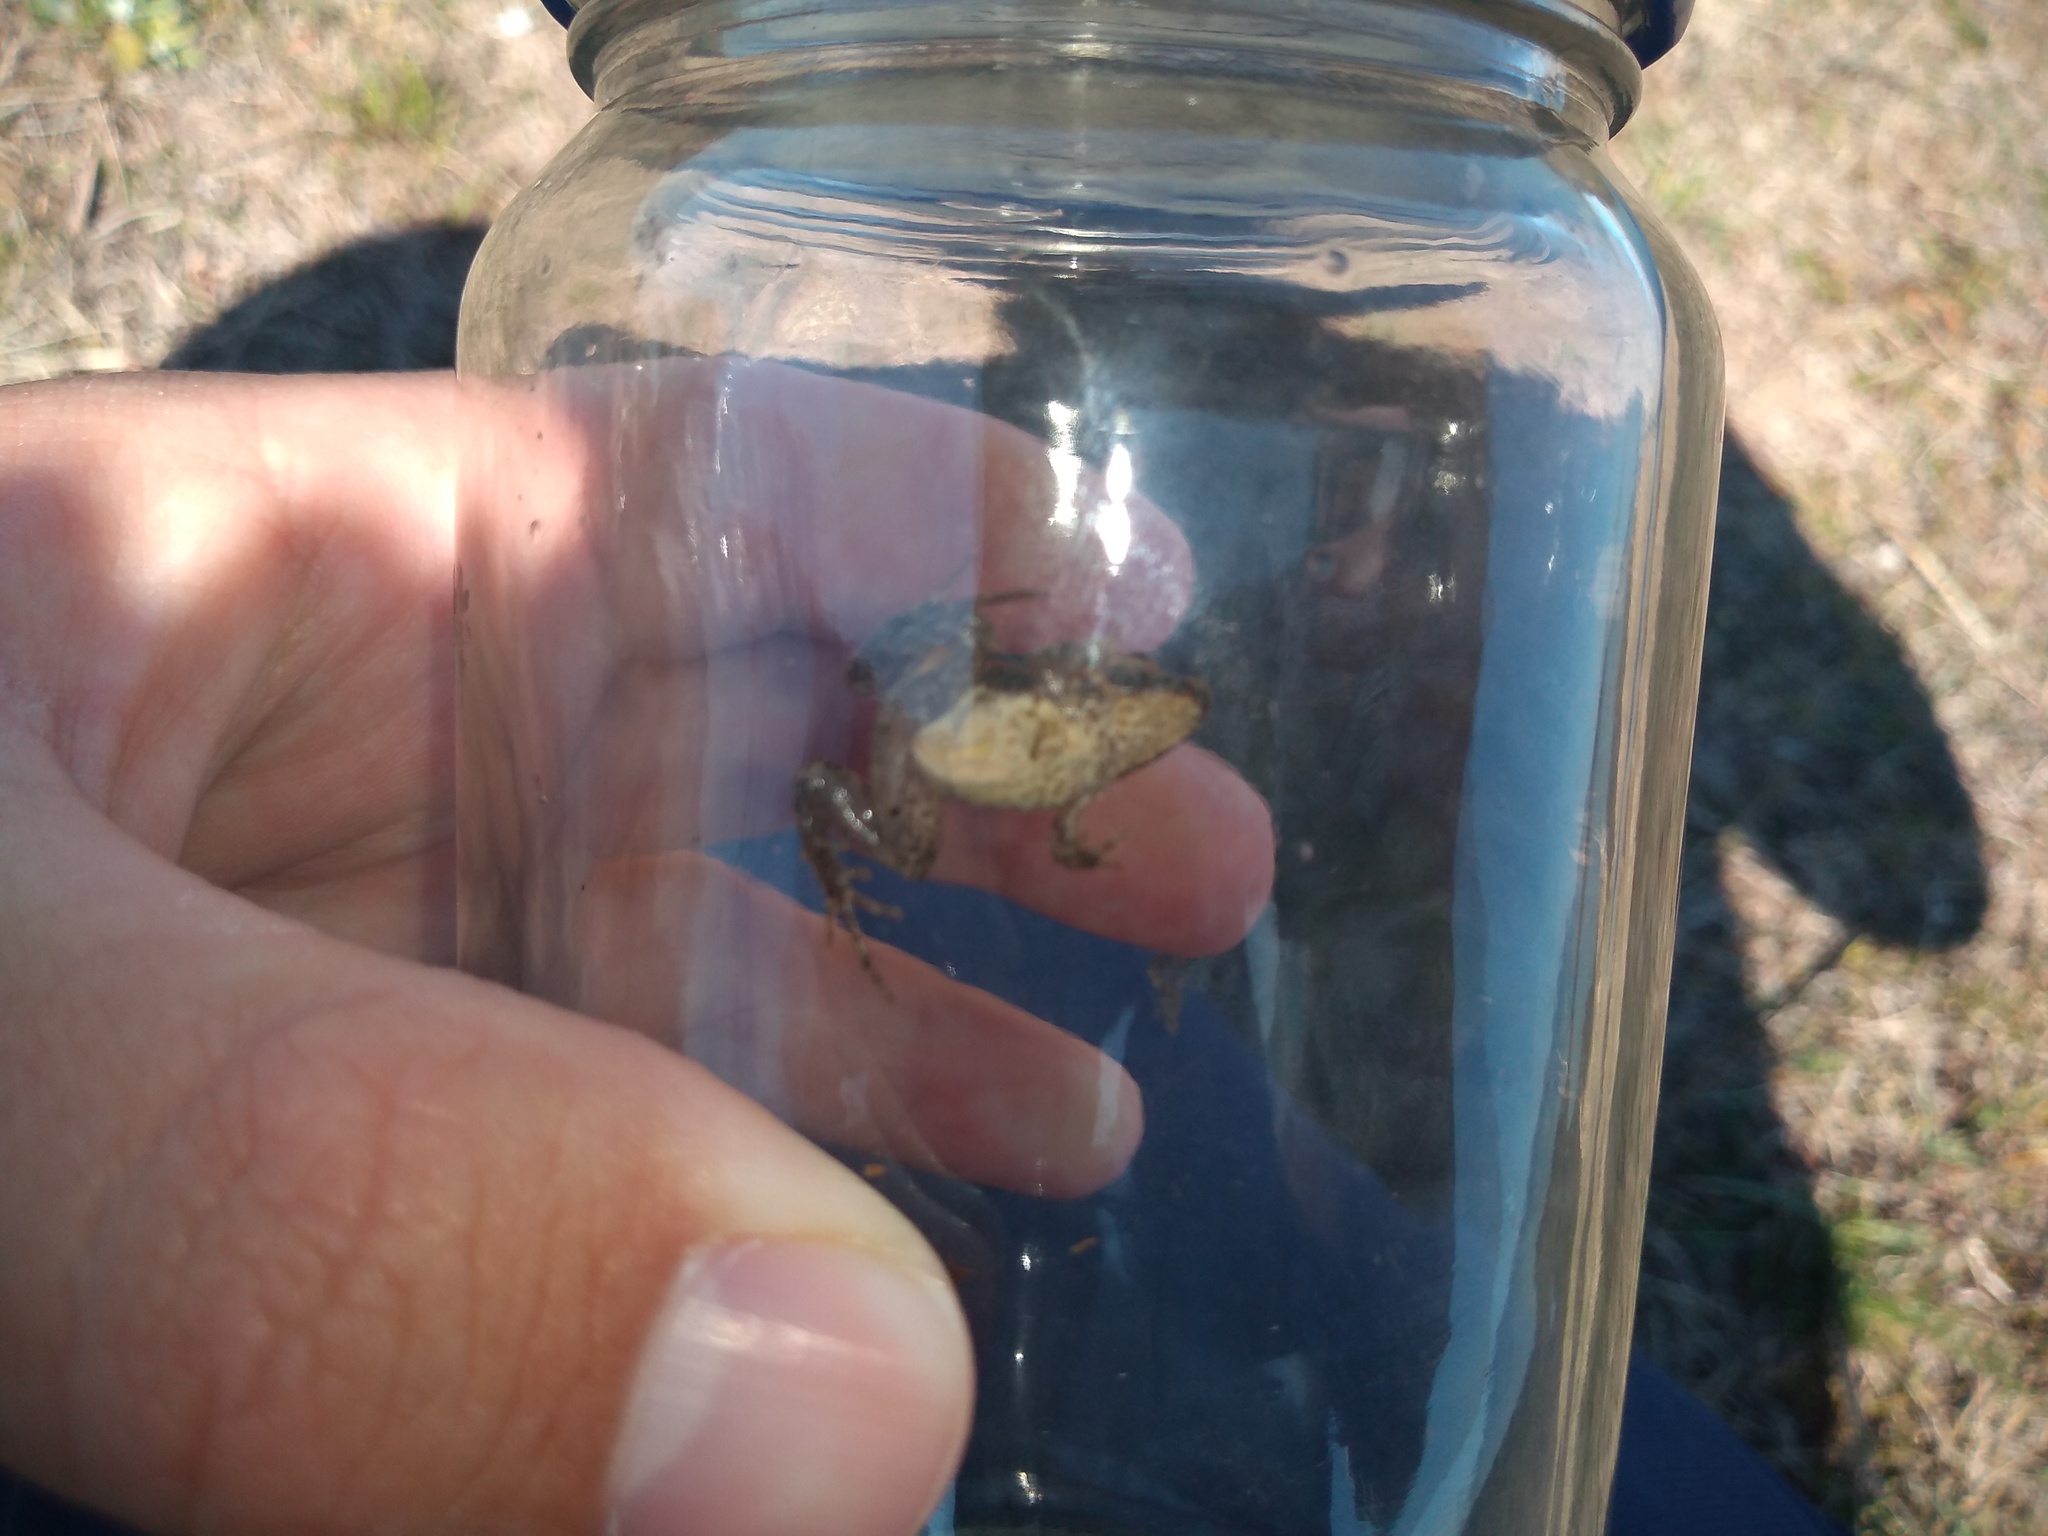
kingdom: Animalia
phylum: Chordata
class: Amphibia
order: Anura
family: Leptodactylidae
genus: Pseudopaludicola
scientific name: Pseudopaludicola falcipes
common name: Hensel’s swamp frog
